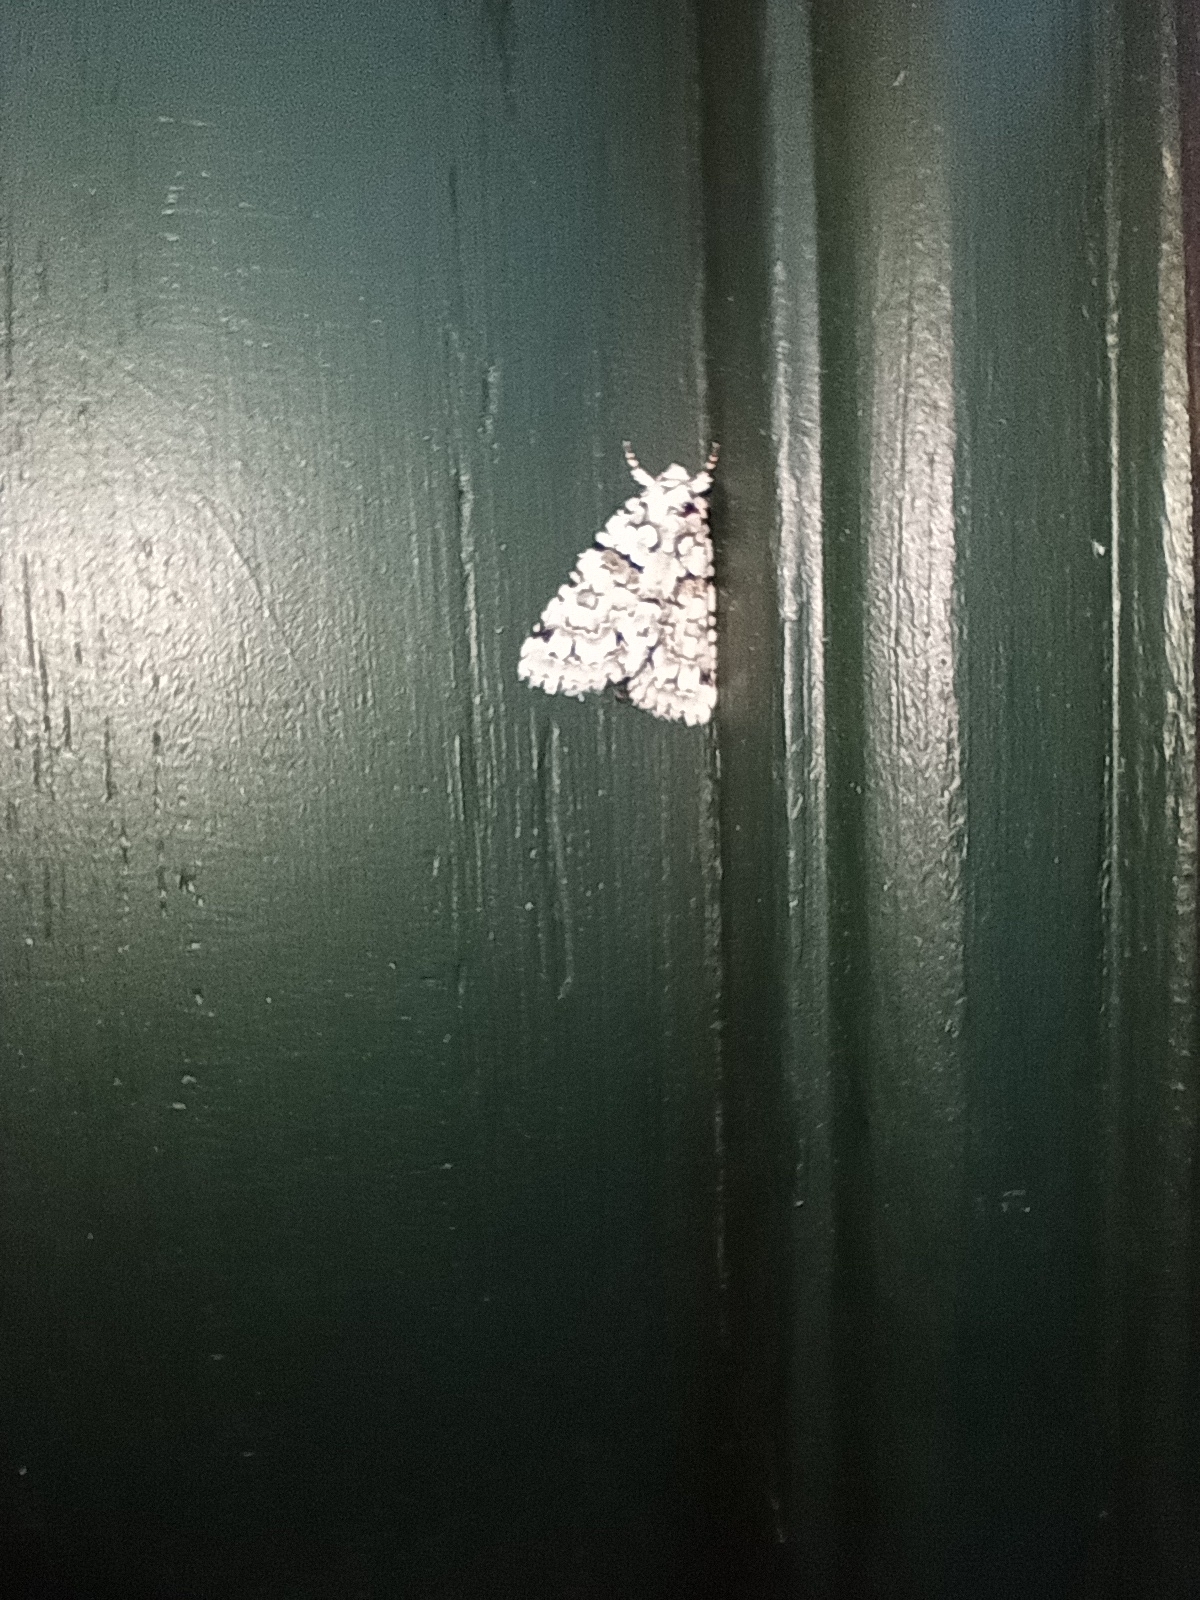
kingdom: Animalia
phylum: Arthropoda
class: Insecta
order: Lepidoptera
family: Noctuidae
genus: Nyctobrya
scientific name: Nyctobrya muralis
